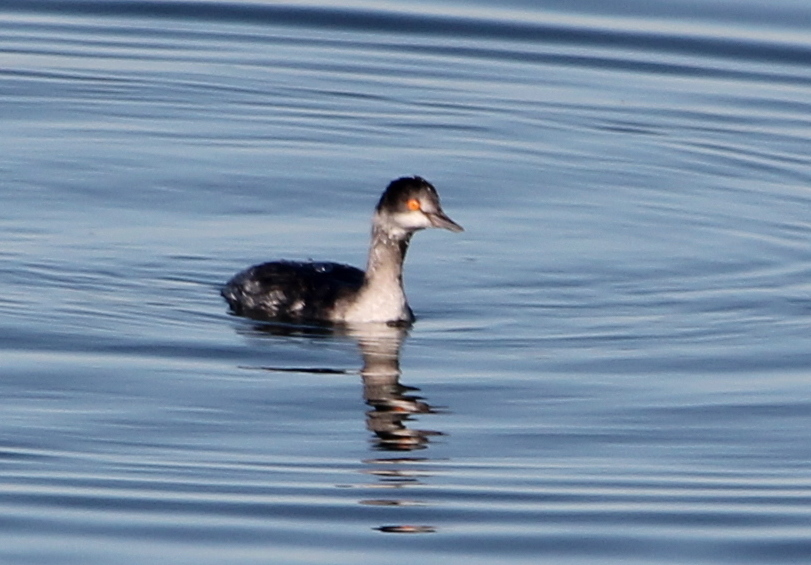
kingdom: Animalia
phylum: Chordata
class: Aves
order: Podicipediformes
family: Podicipedidae
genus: Podiceps
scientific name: Podiceps nigricollis
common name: Black-necked grebe
